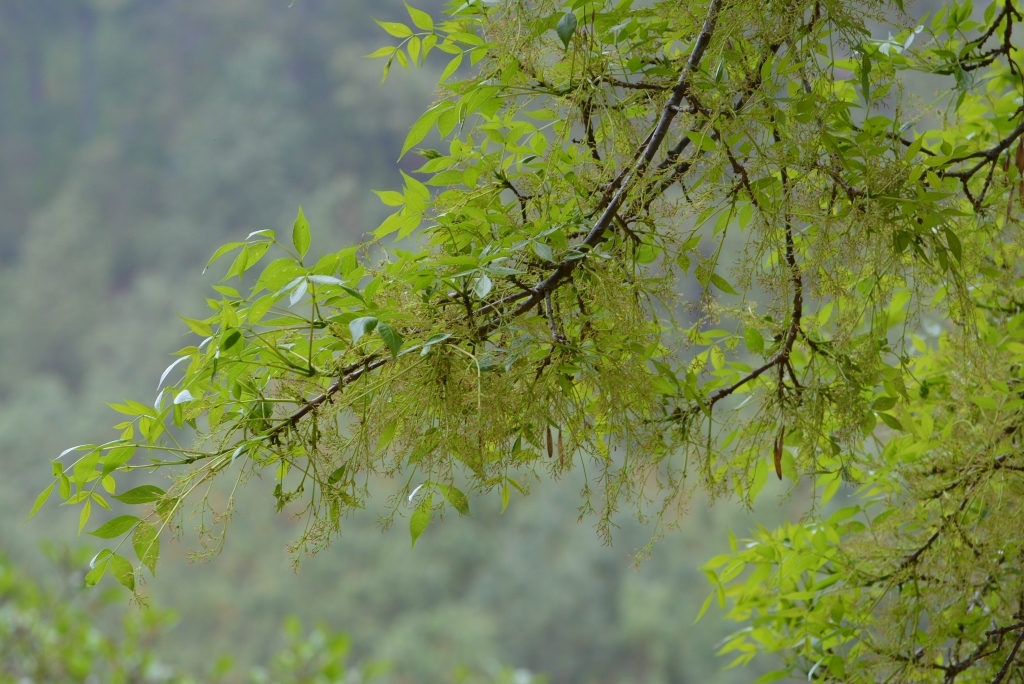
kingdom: Plantae
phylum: Tracheophyta
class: Magnoliopsida
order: Lamiales
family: Oleaceae
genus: Fraxinus
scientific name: Fraxinus uhdei
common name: Shamel ash
